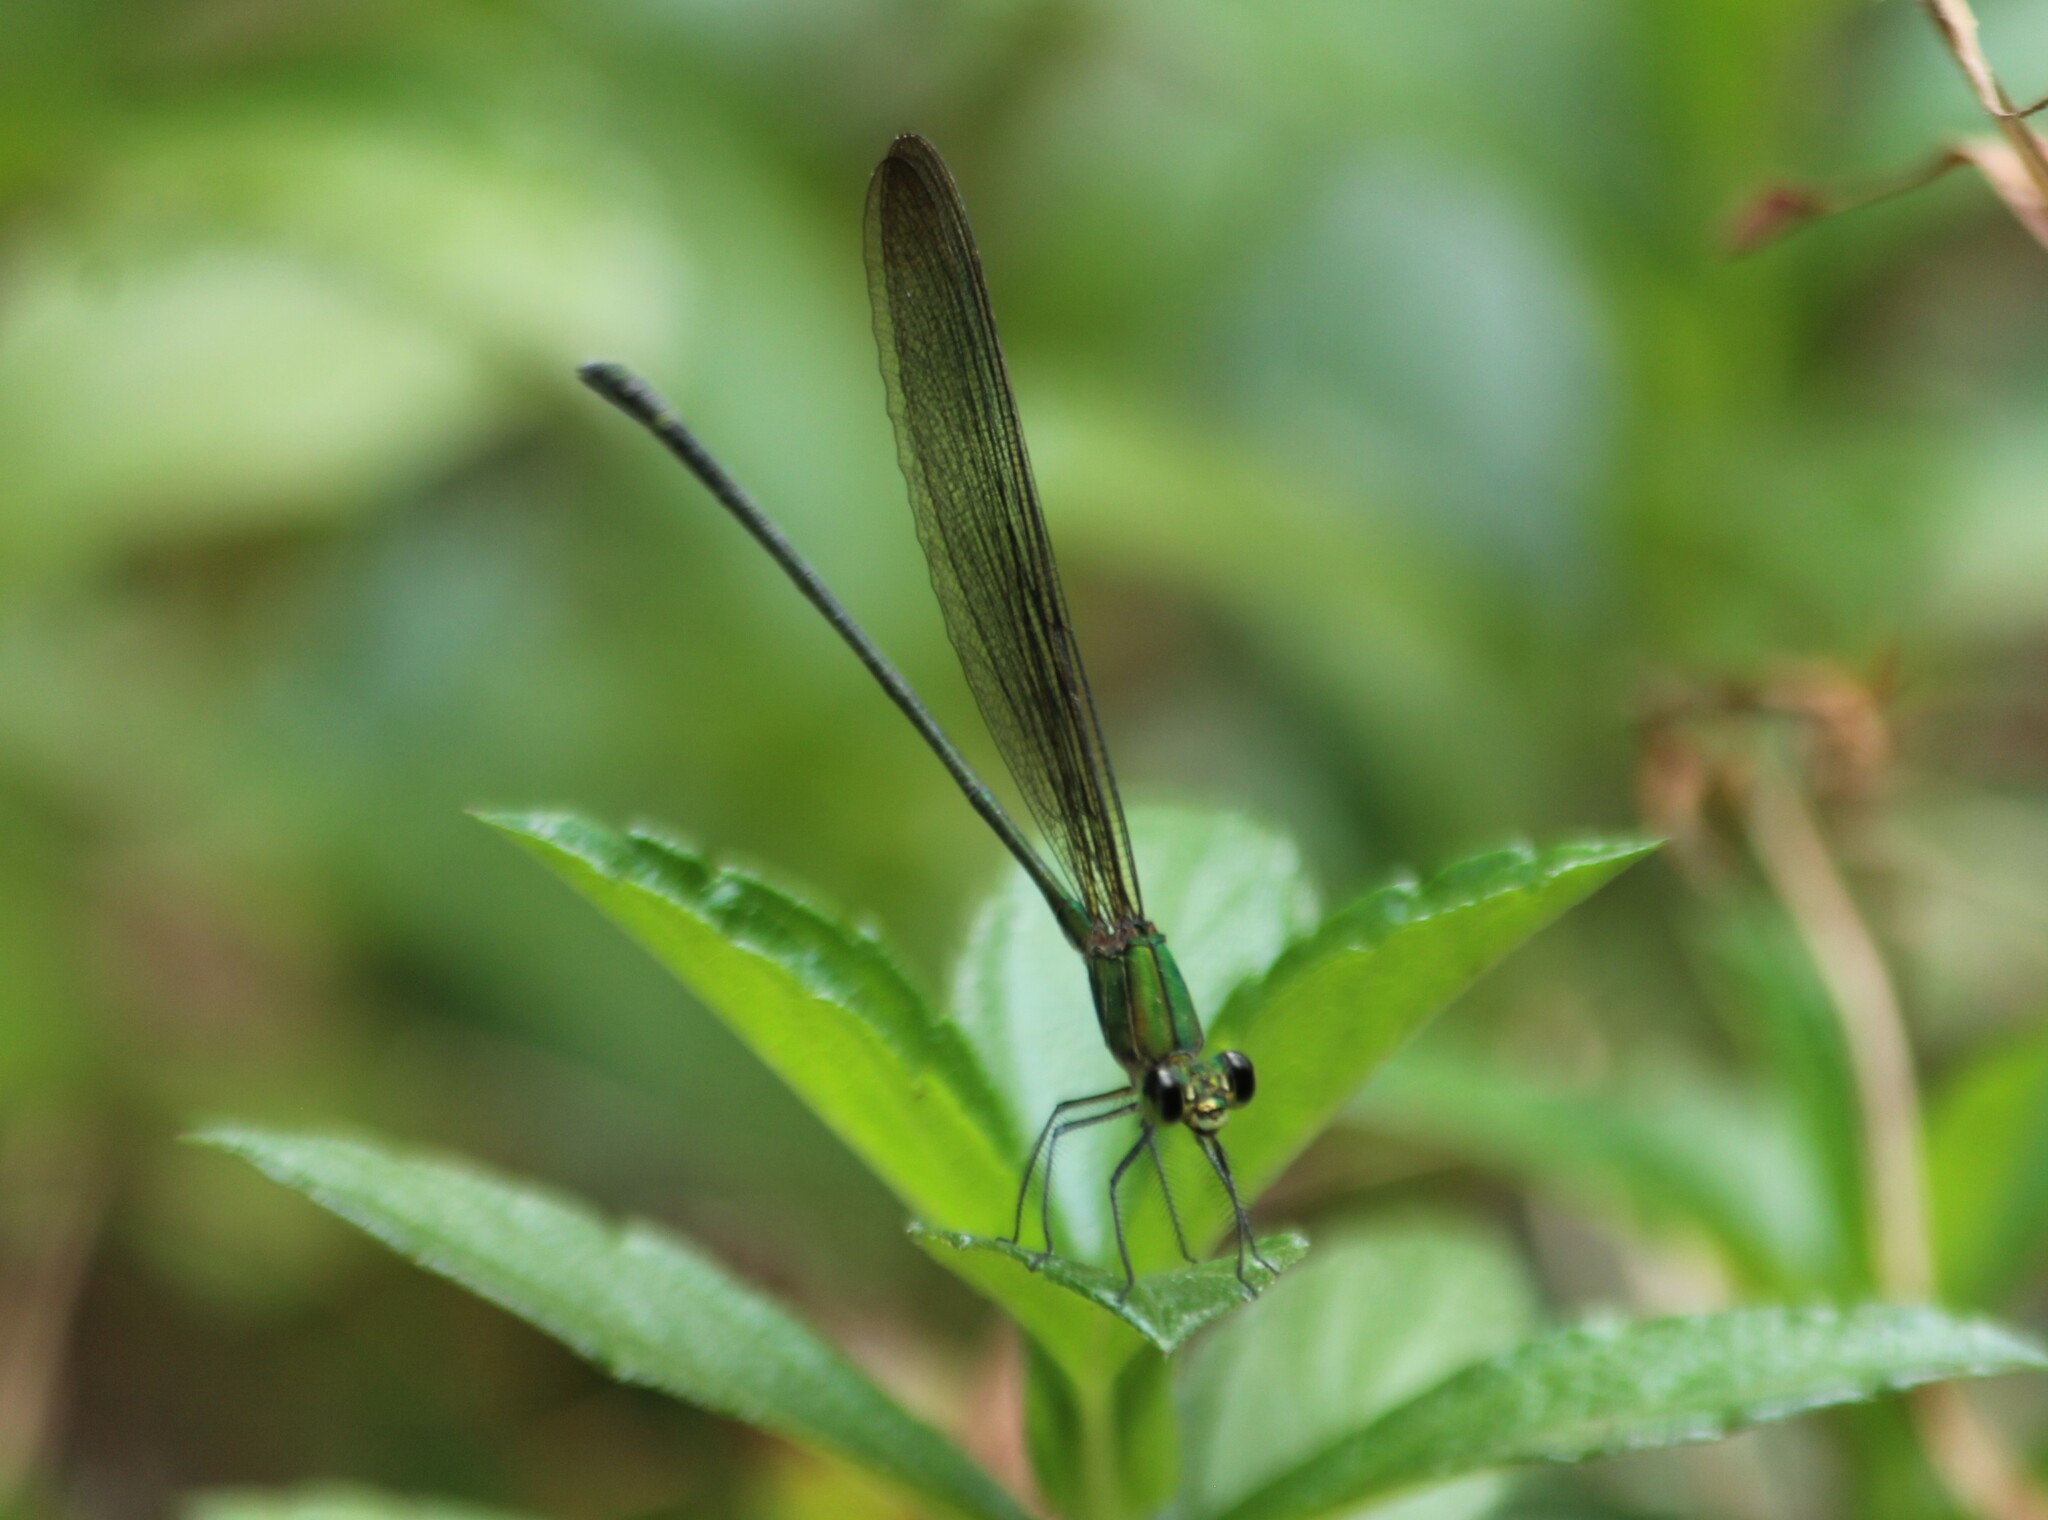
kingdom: Animalia
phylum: Arthropoda
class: Insecta
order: Odonata
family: Calopterygidae
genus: Vestalis
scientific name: Vestalis gracilis
